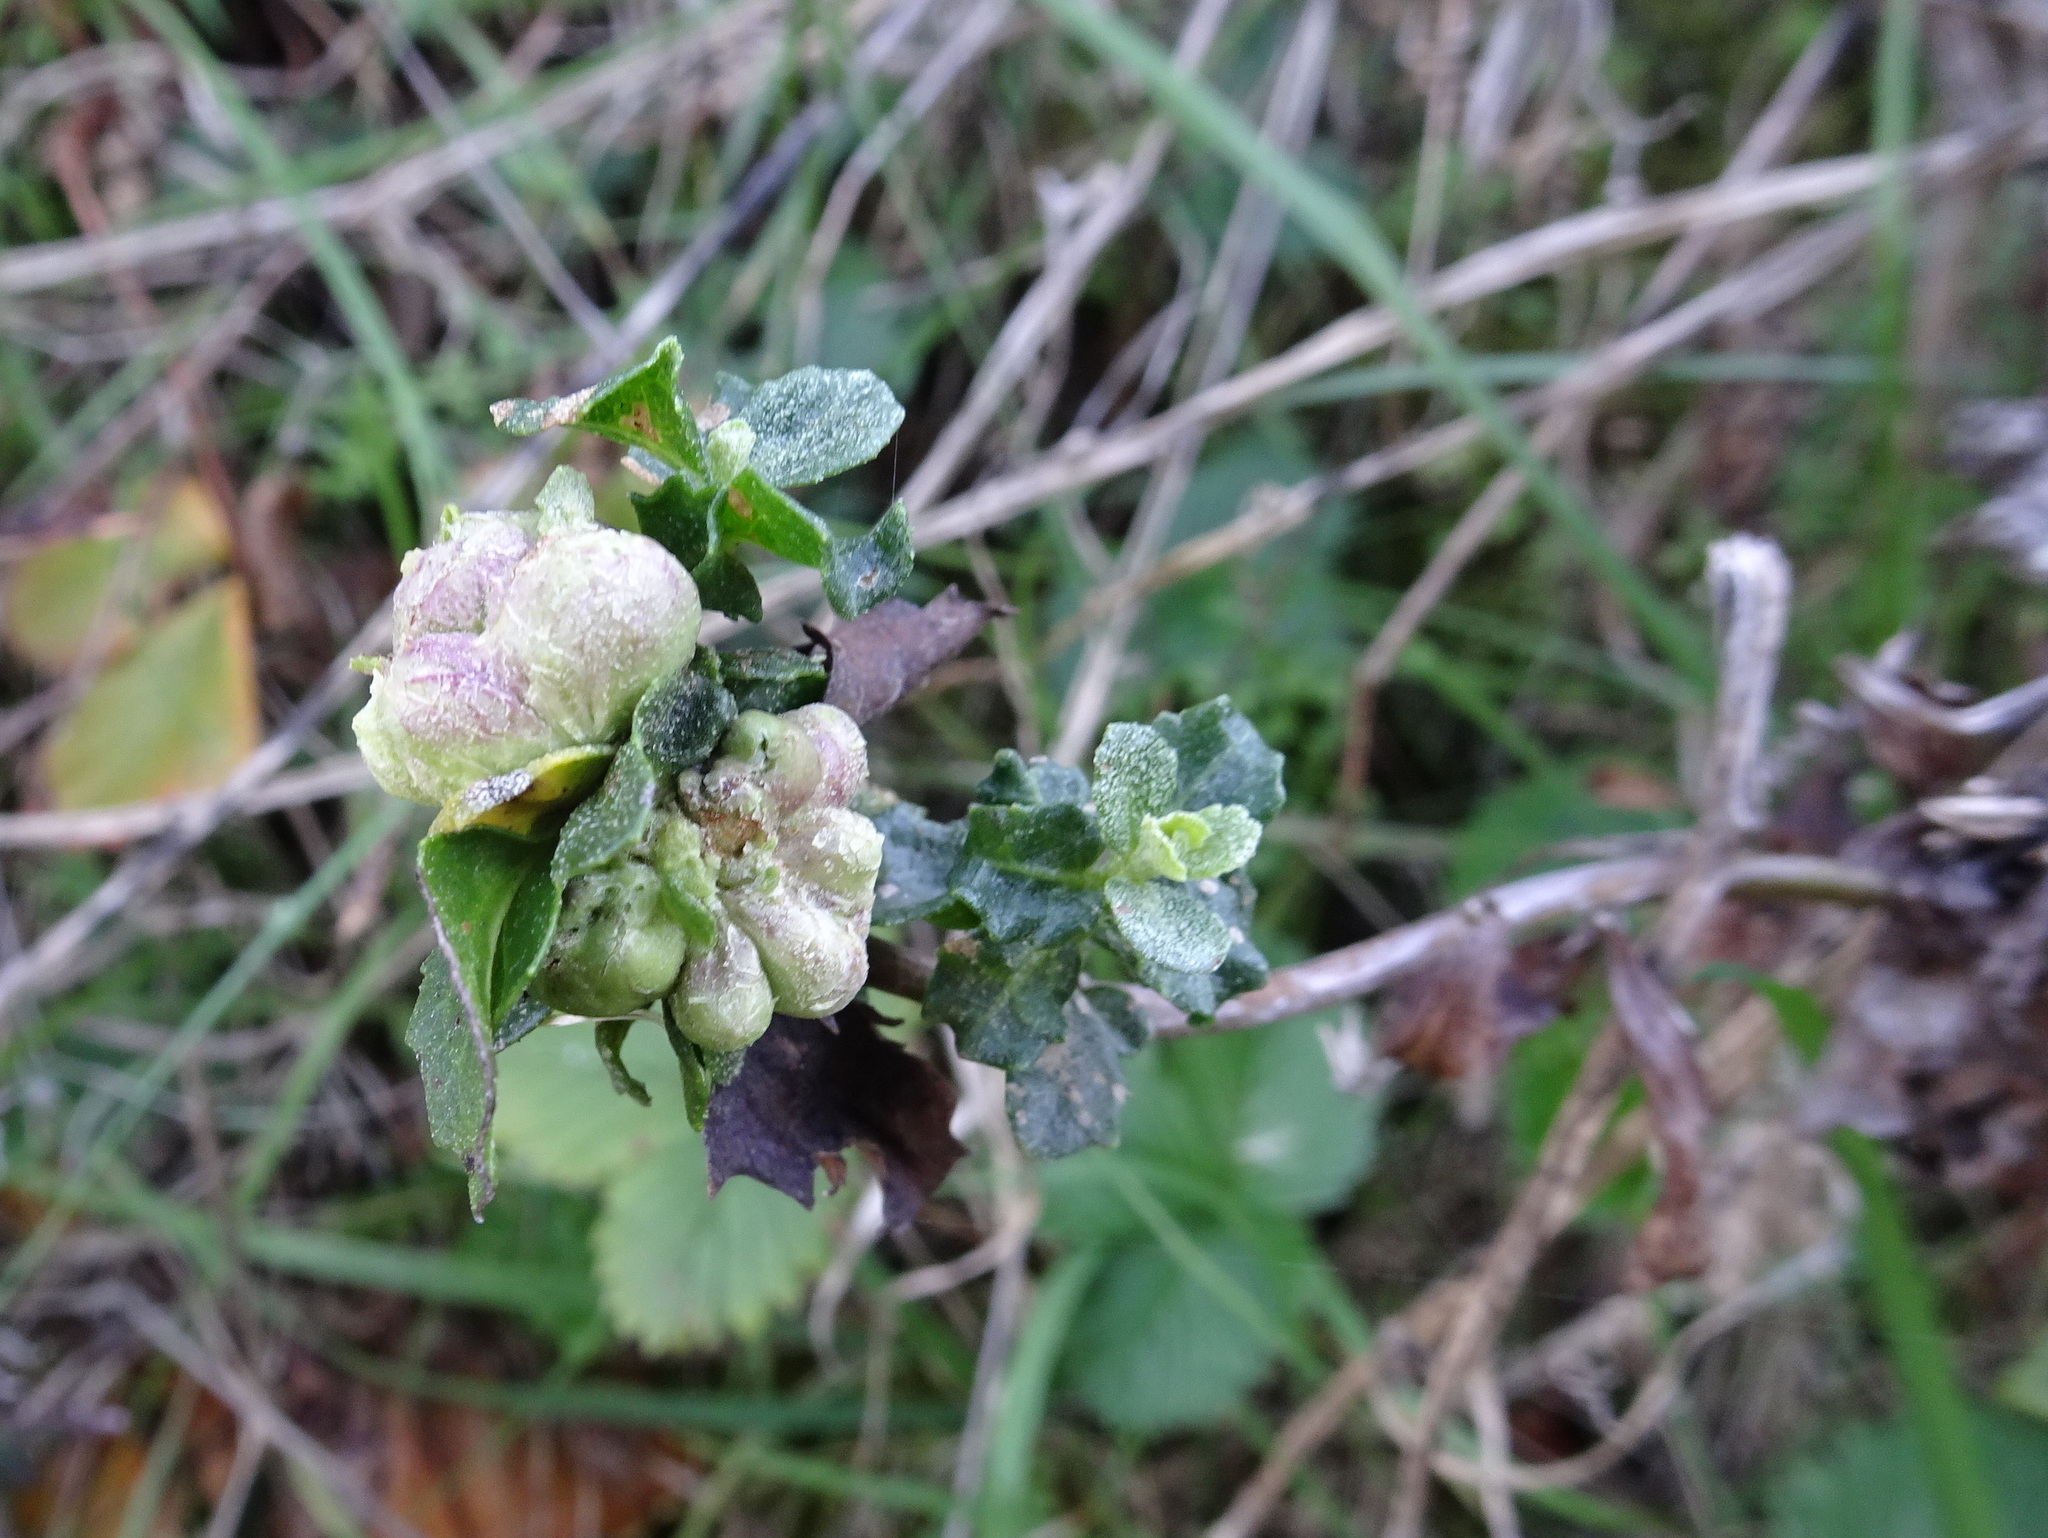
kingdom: Animalia
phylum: Arthropoda
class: Insecta
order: Diptera
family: Cecidomyiidae
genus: Rhopalomyia
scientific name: Rhopalomyia californica
